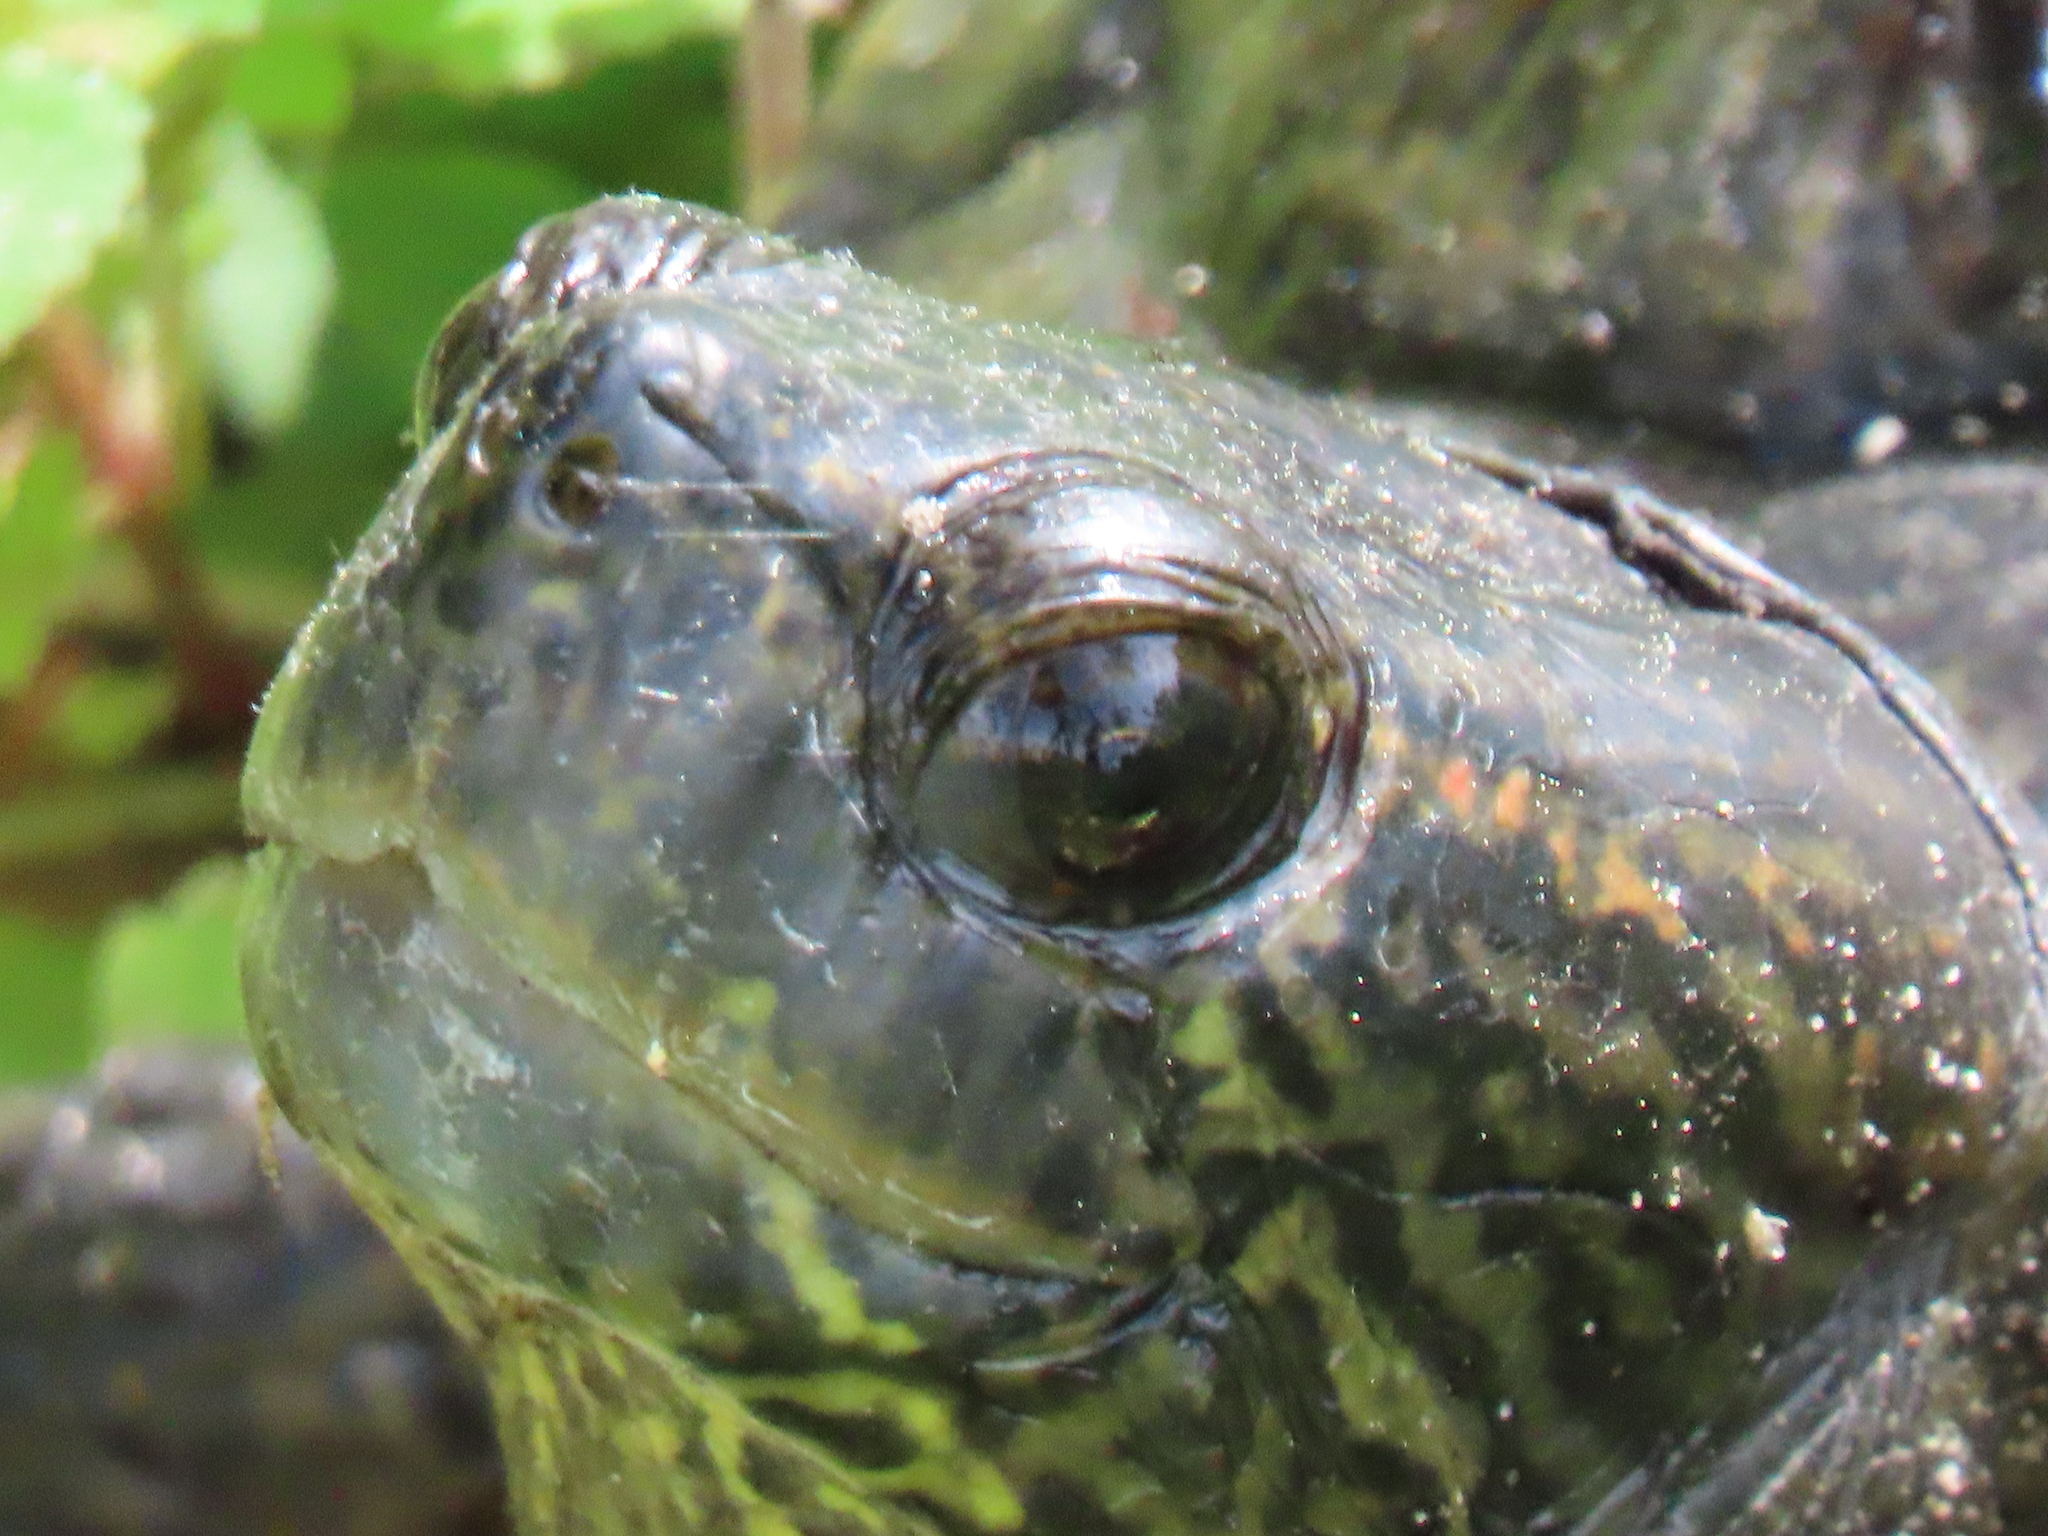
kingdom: Animalia
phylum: Chordata
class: Testudines
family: Emydidae
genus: Trachemys
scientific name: Trachemys scripta
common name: Slider
